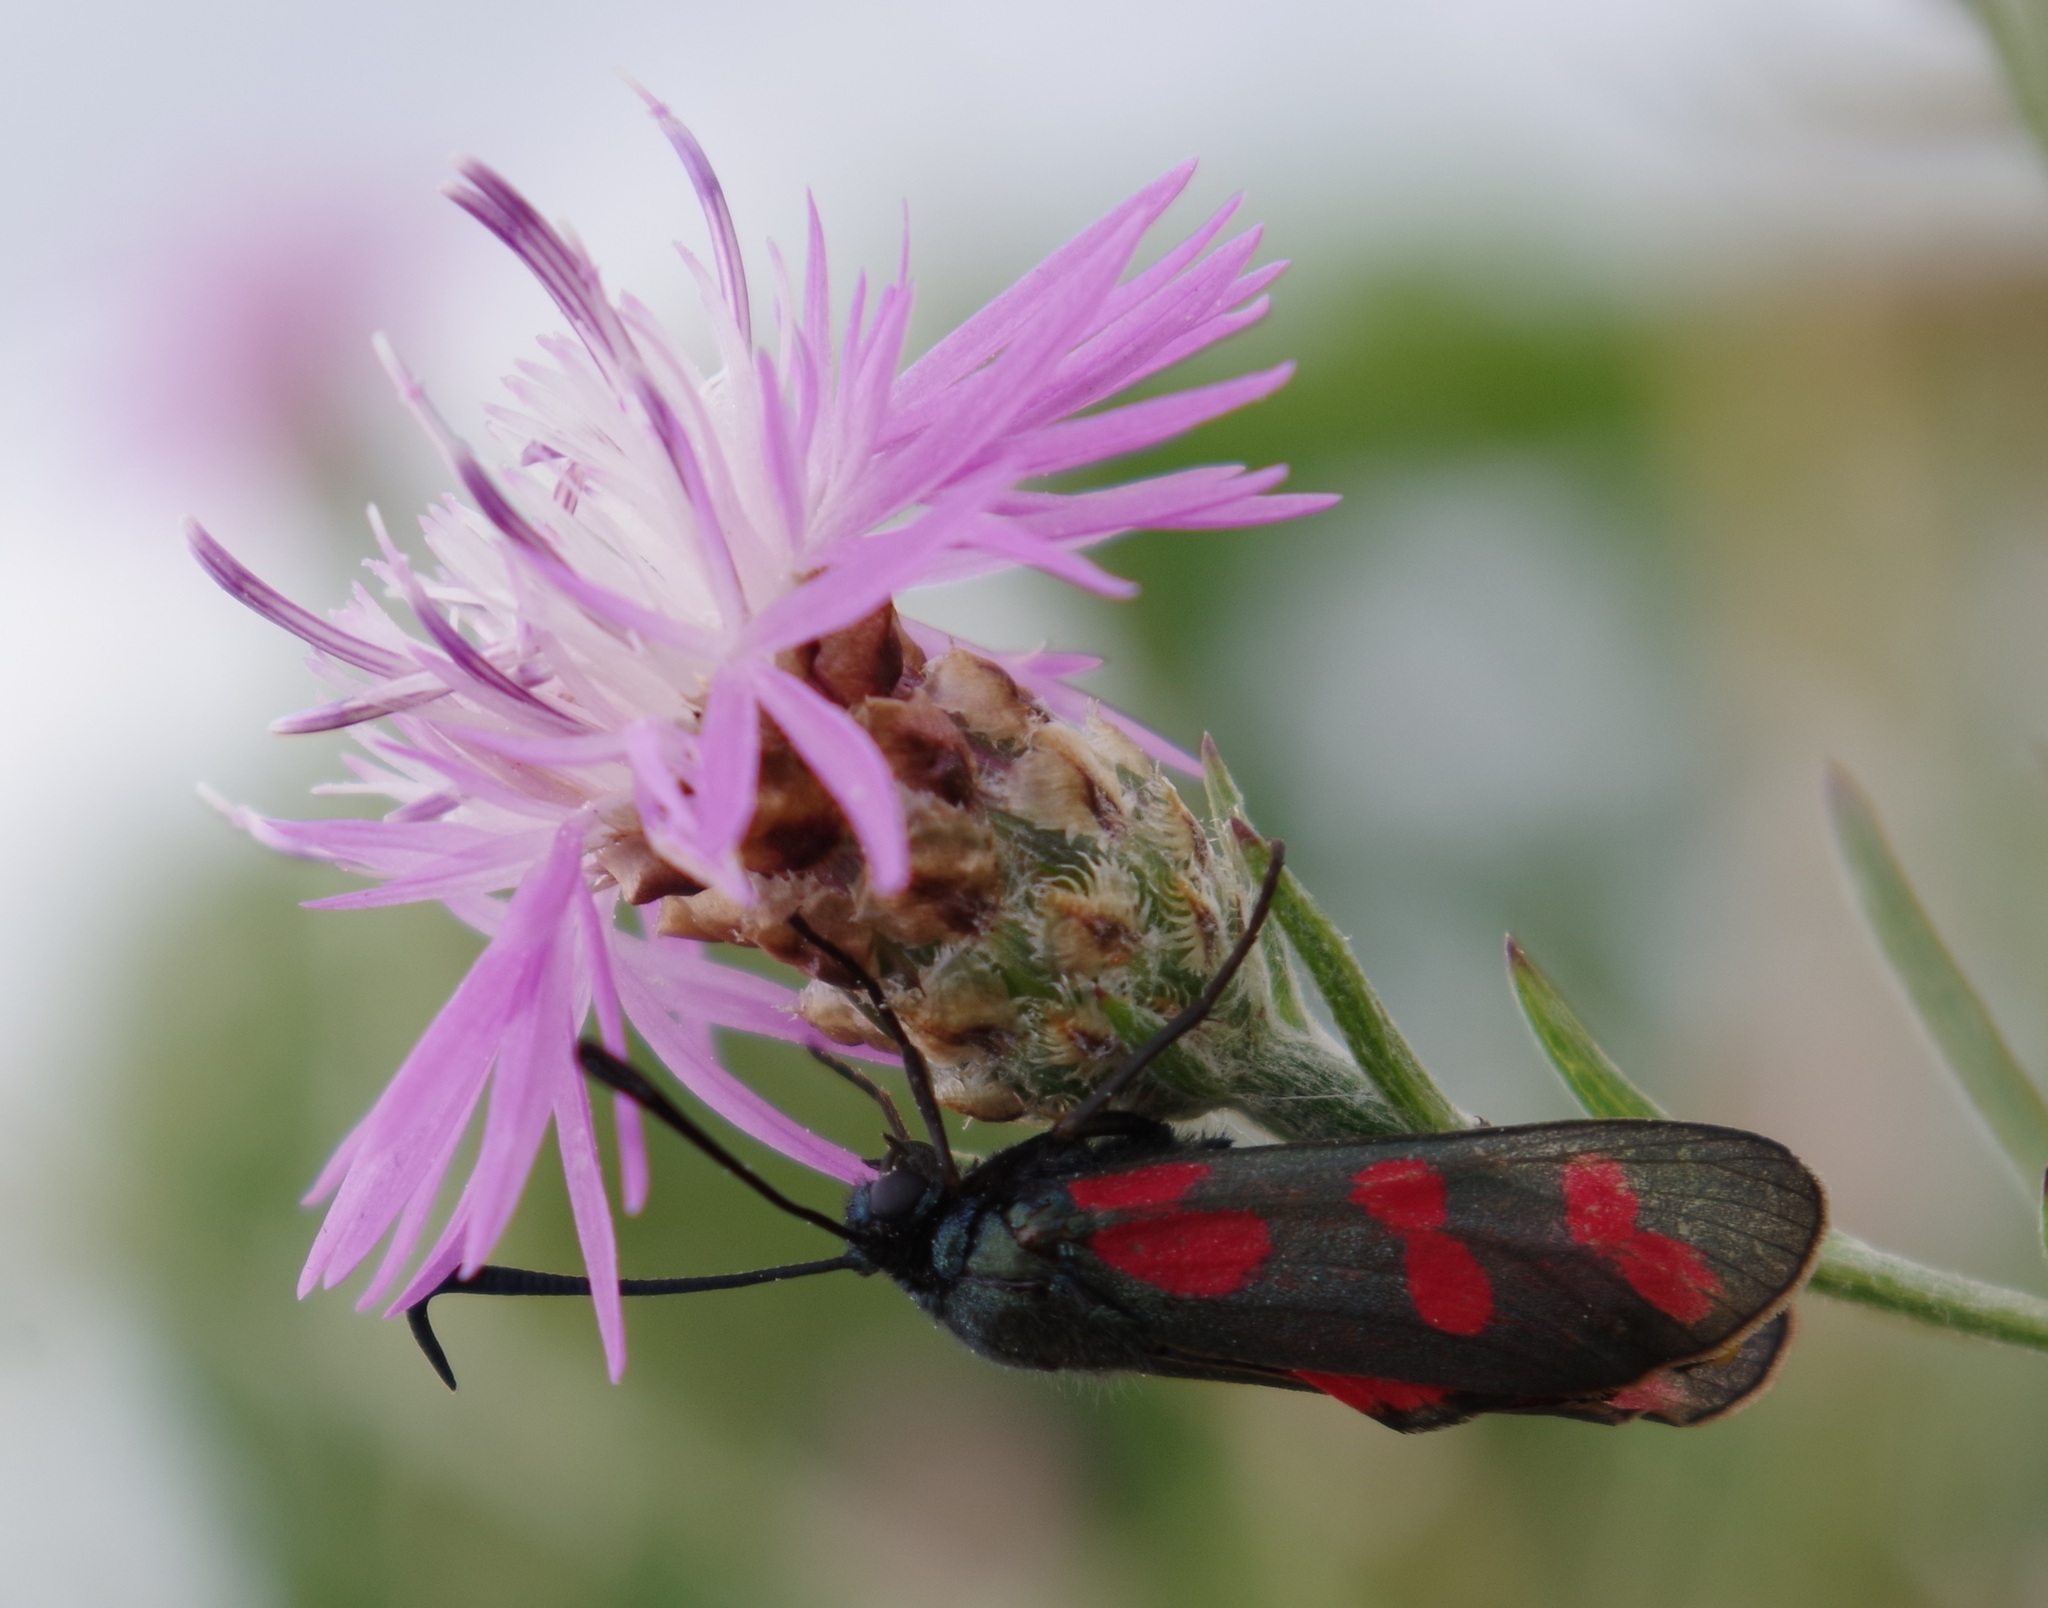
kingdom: Animalia
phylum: Arthropoda
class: Insecta
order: Lepidoptera
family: Zygaenidae
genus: Zygaena
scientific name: Zygaena filipendulae
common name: Six-spot burnet
